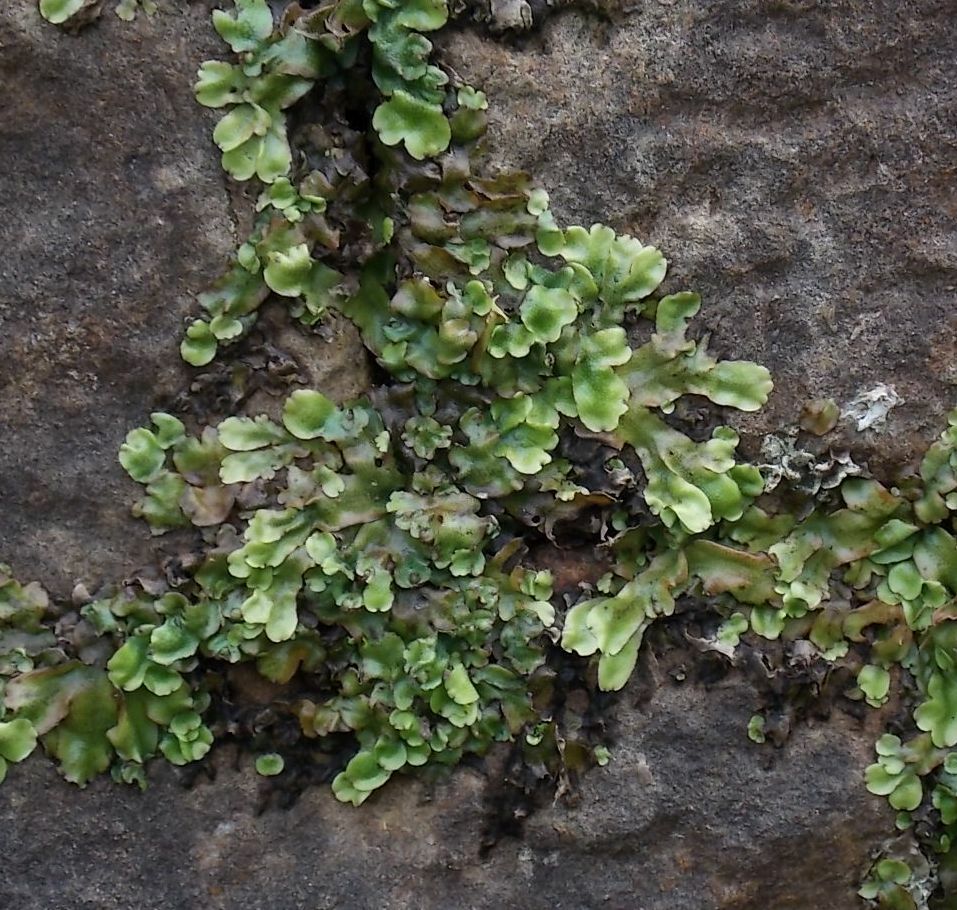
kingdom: Plantae
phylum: Marchantiophyta
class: Marchantiopsida
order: Marchantiales
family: Conocephalaceae
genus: Conocephalum
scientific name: Conocephalum conicum
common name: Great scented liverwort
